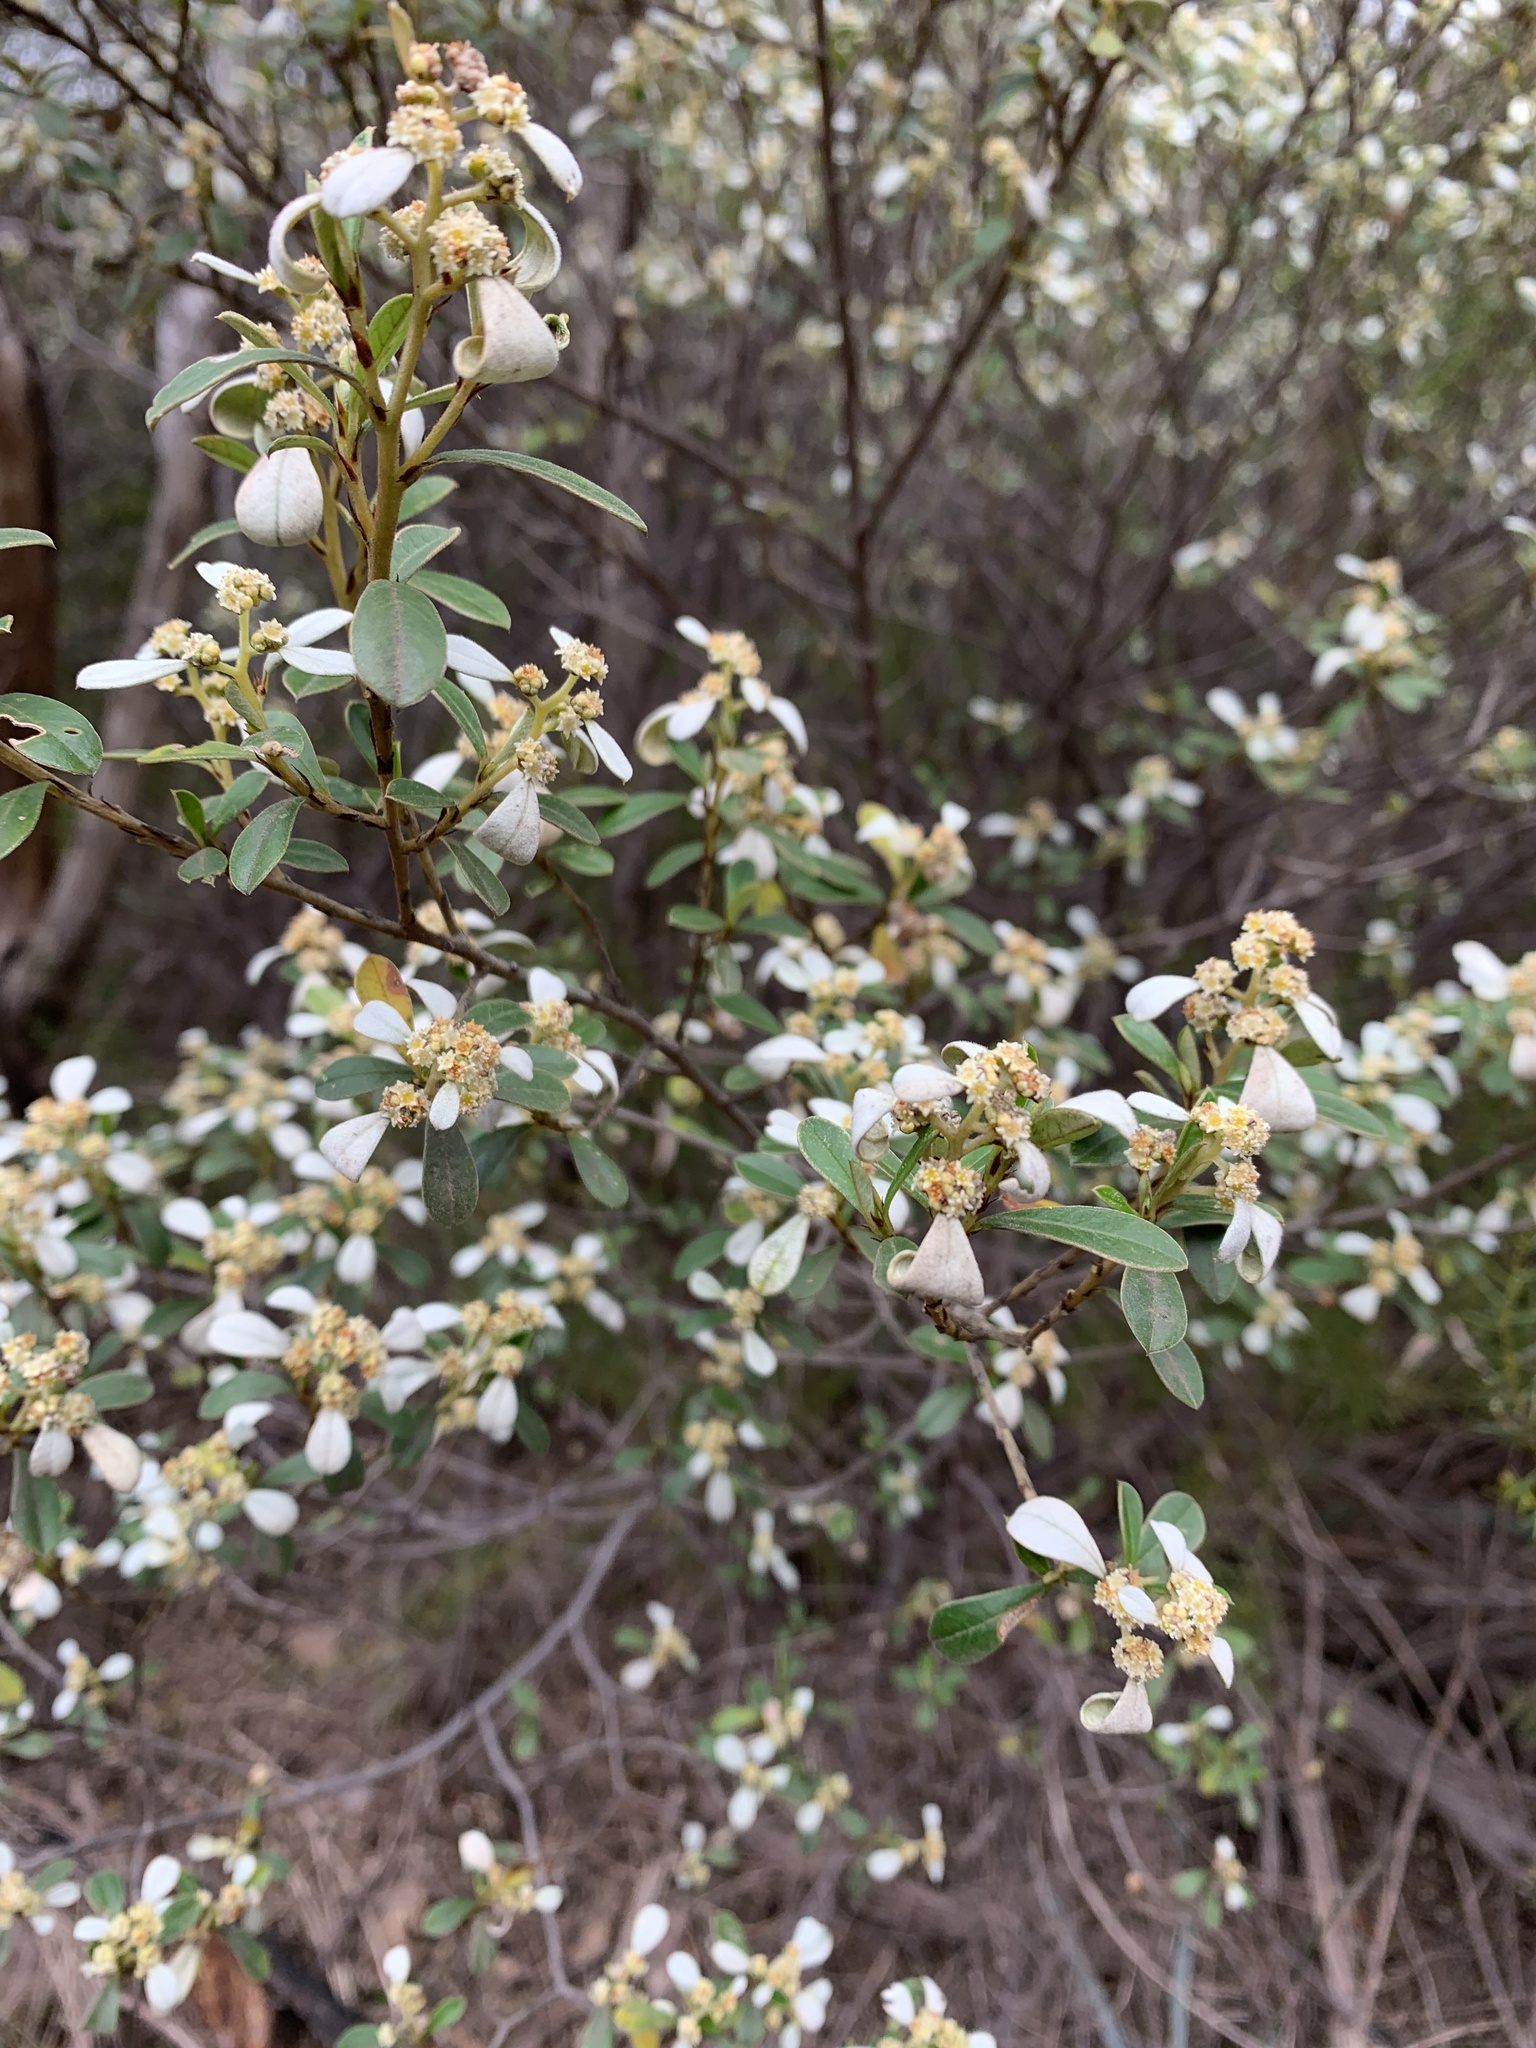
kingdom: Plantae
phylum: Tracheophyta
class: Magnoliopsida
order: Rosales
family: Rhamnaceae
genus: Spyridium
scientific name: Spyridium daphnoides
